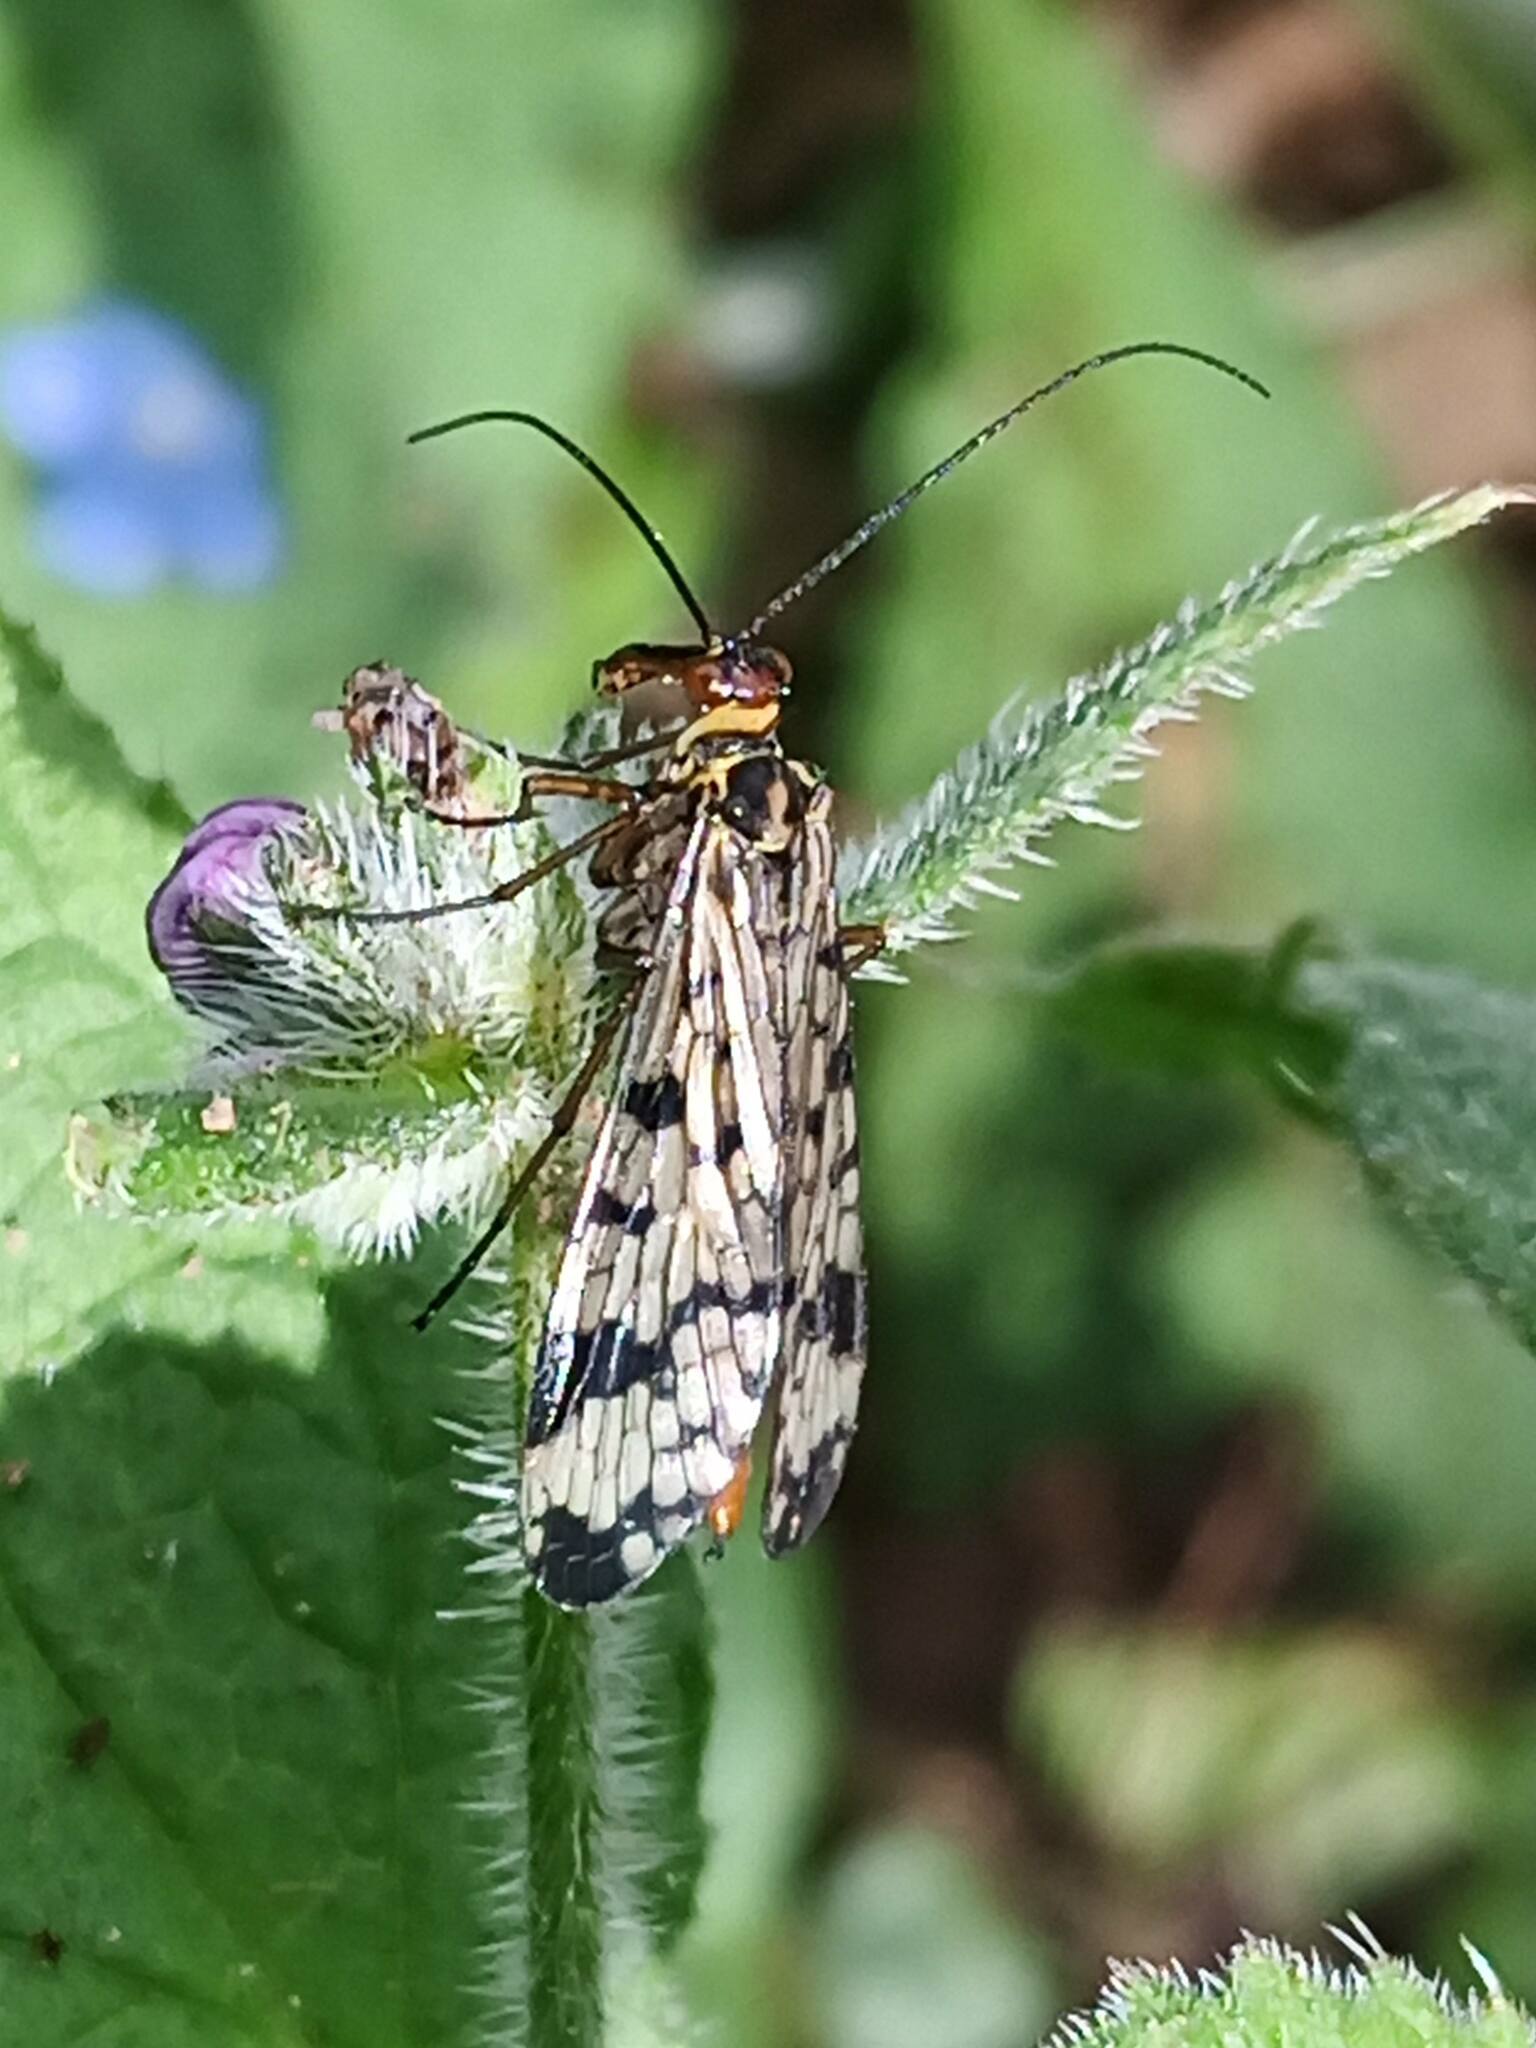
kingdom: Animalia
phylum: Arthropoda
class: Insecta
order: Mecoptera
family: Panorpidae
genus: Panorpa
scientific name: Panorpa meridionalis
